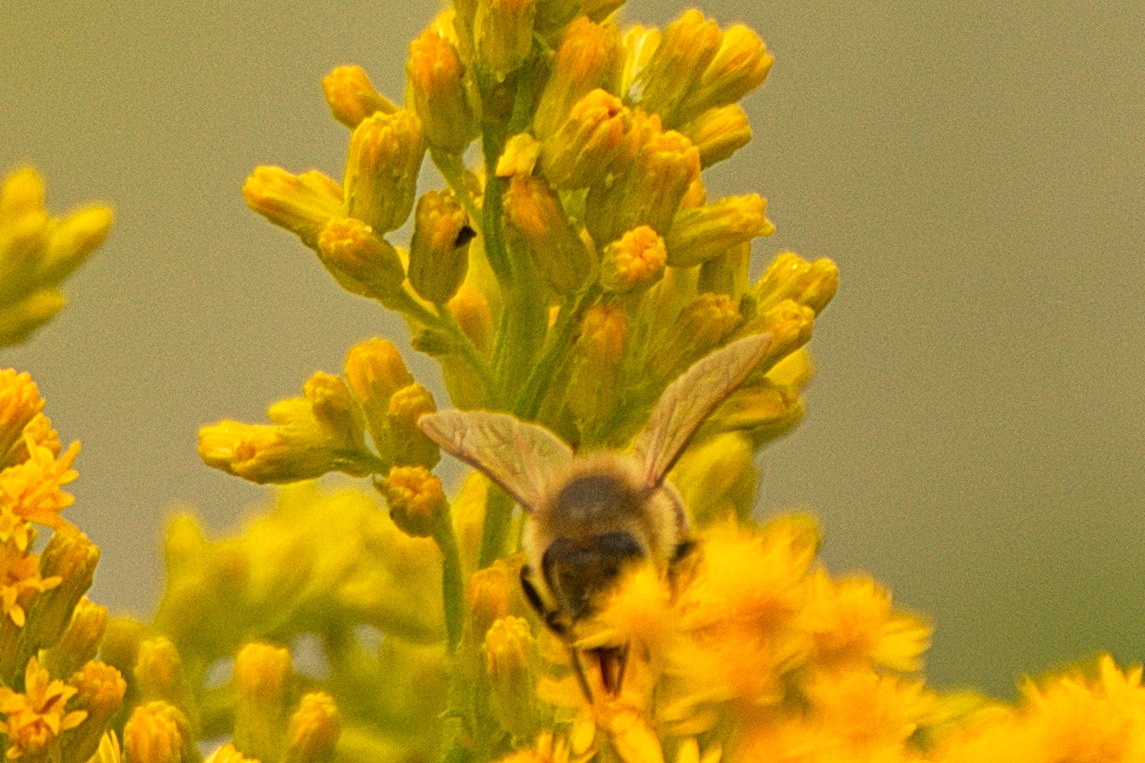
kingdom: Animalia
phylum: Arthropoda
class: Insecta
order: Hymenoptera
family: Apidae
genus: Apis
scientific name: Apis mellifera
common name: Honey bee
